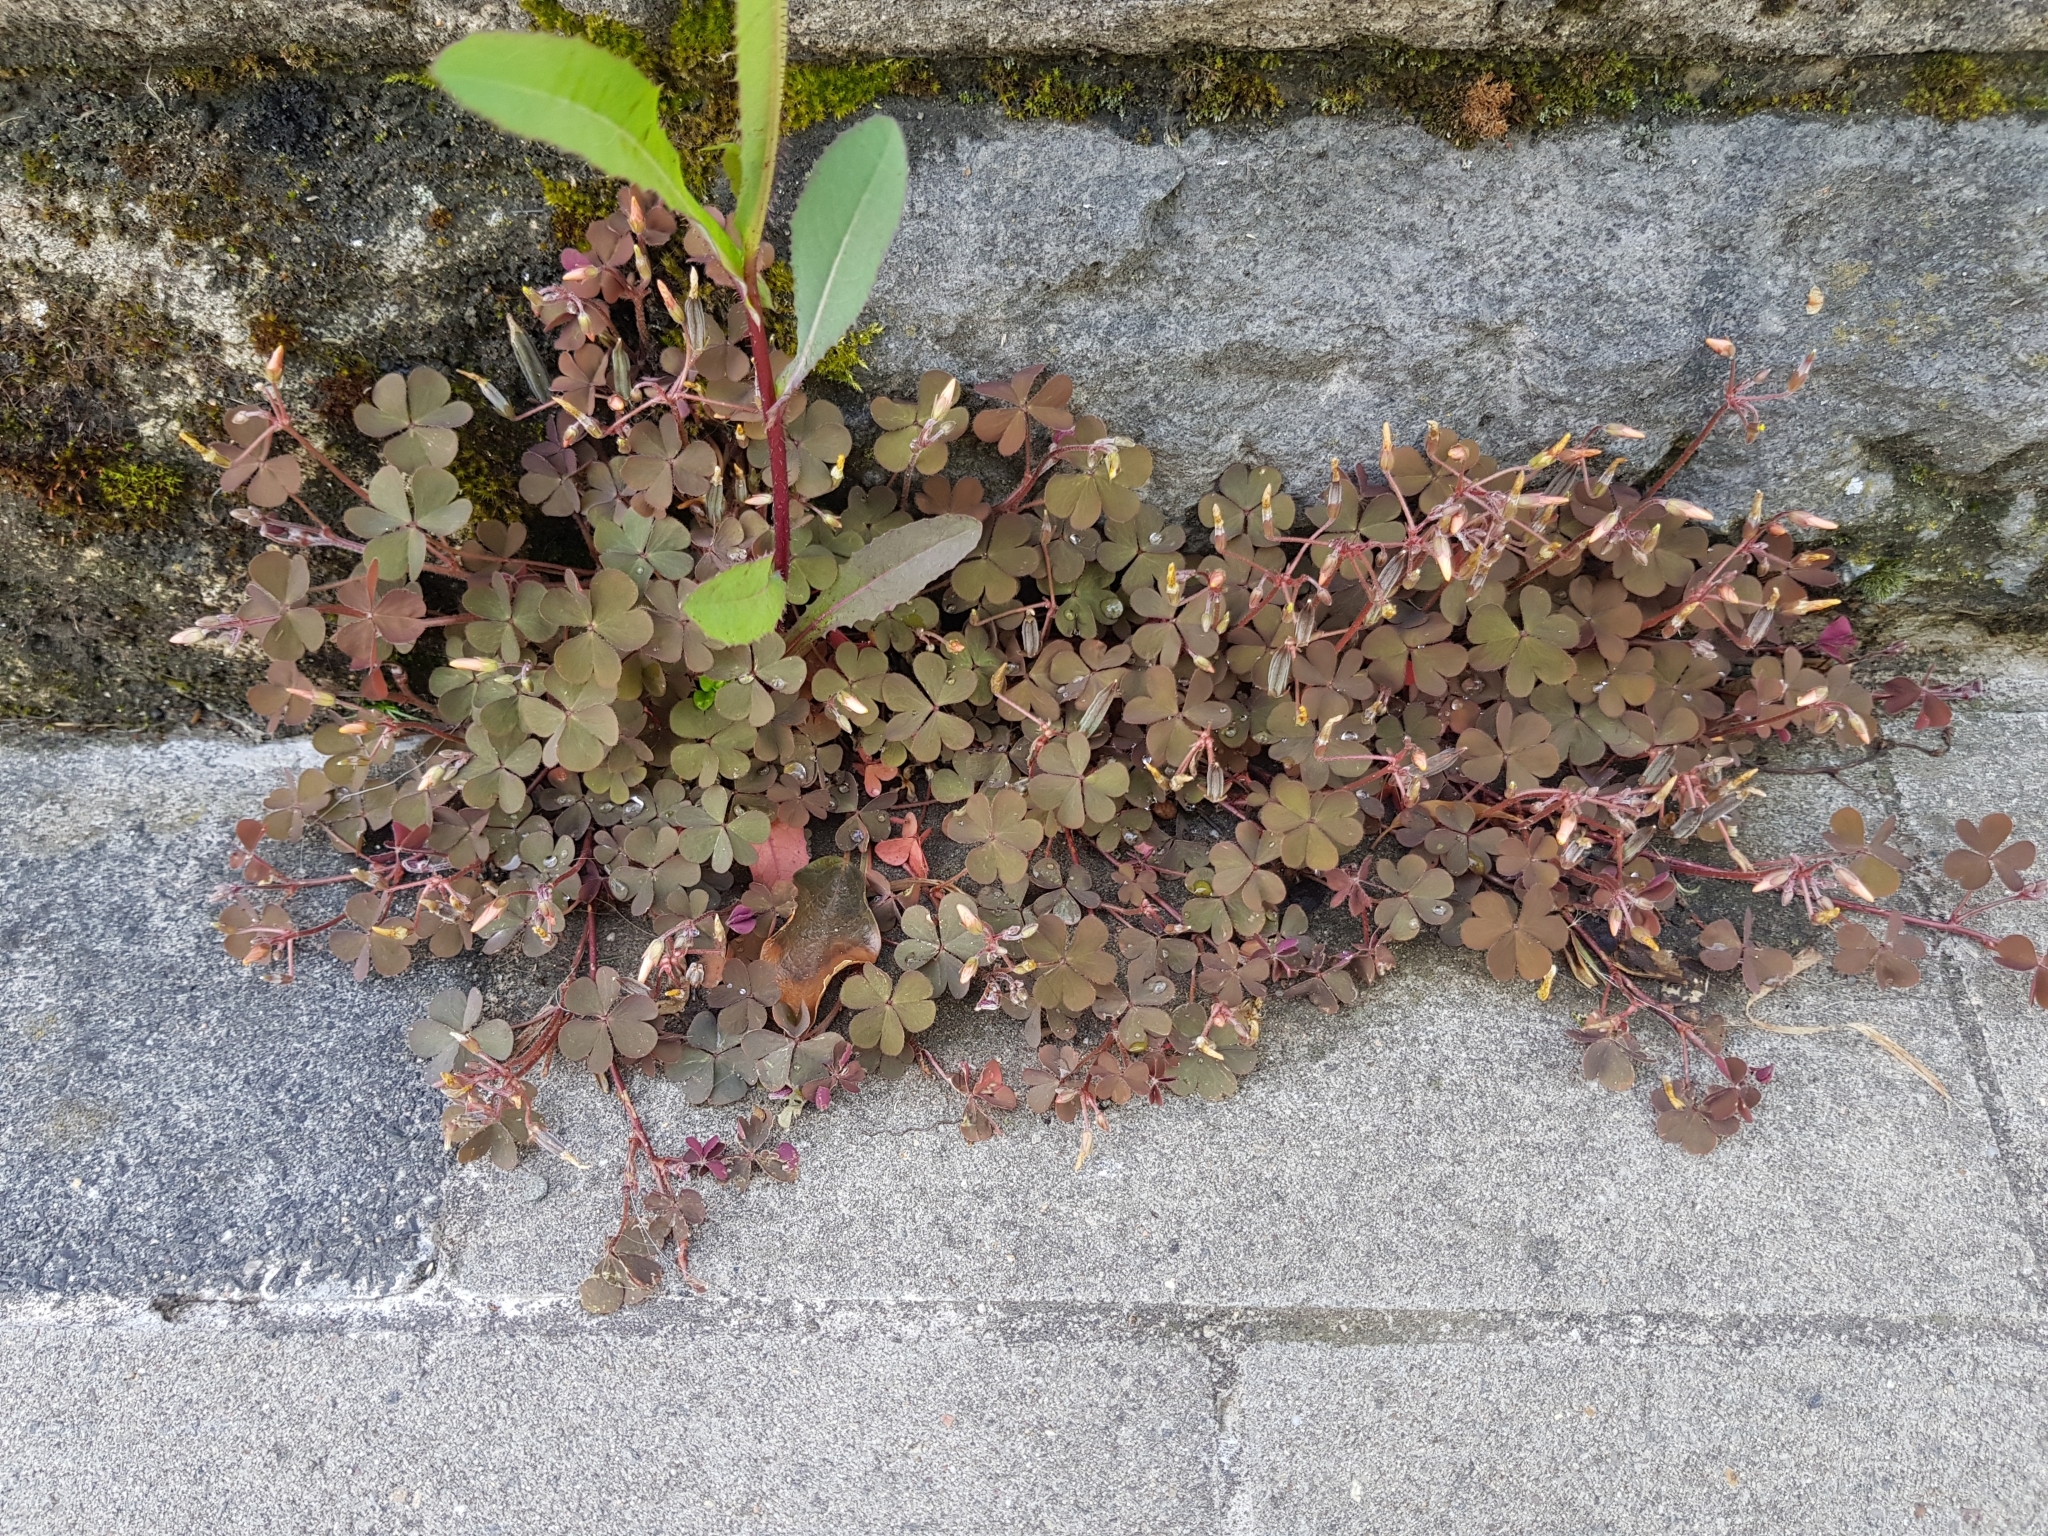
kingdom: Plantae
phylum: Tracheophyta
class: Magnoliopsida
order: Oxalidales
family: Oxalidaceae
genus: Oxalis
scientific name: Oxalis corniculata
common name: Procumbent yellow-sorrel
